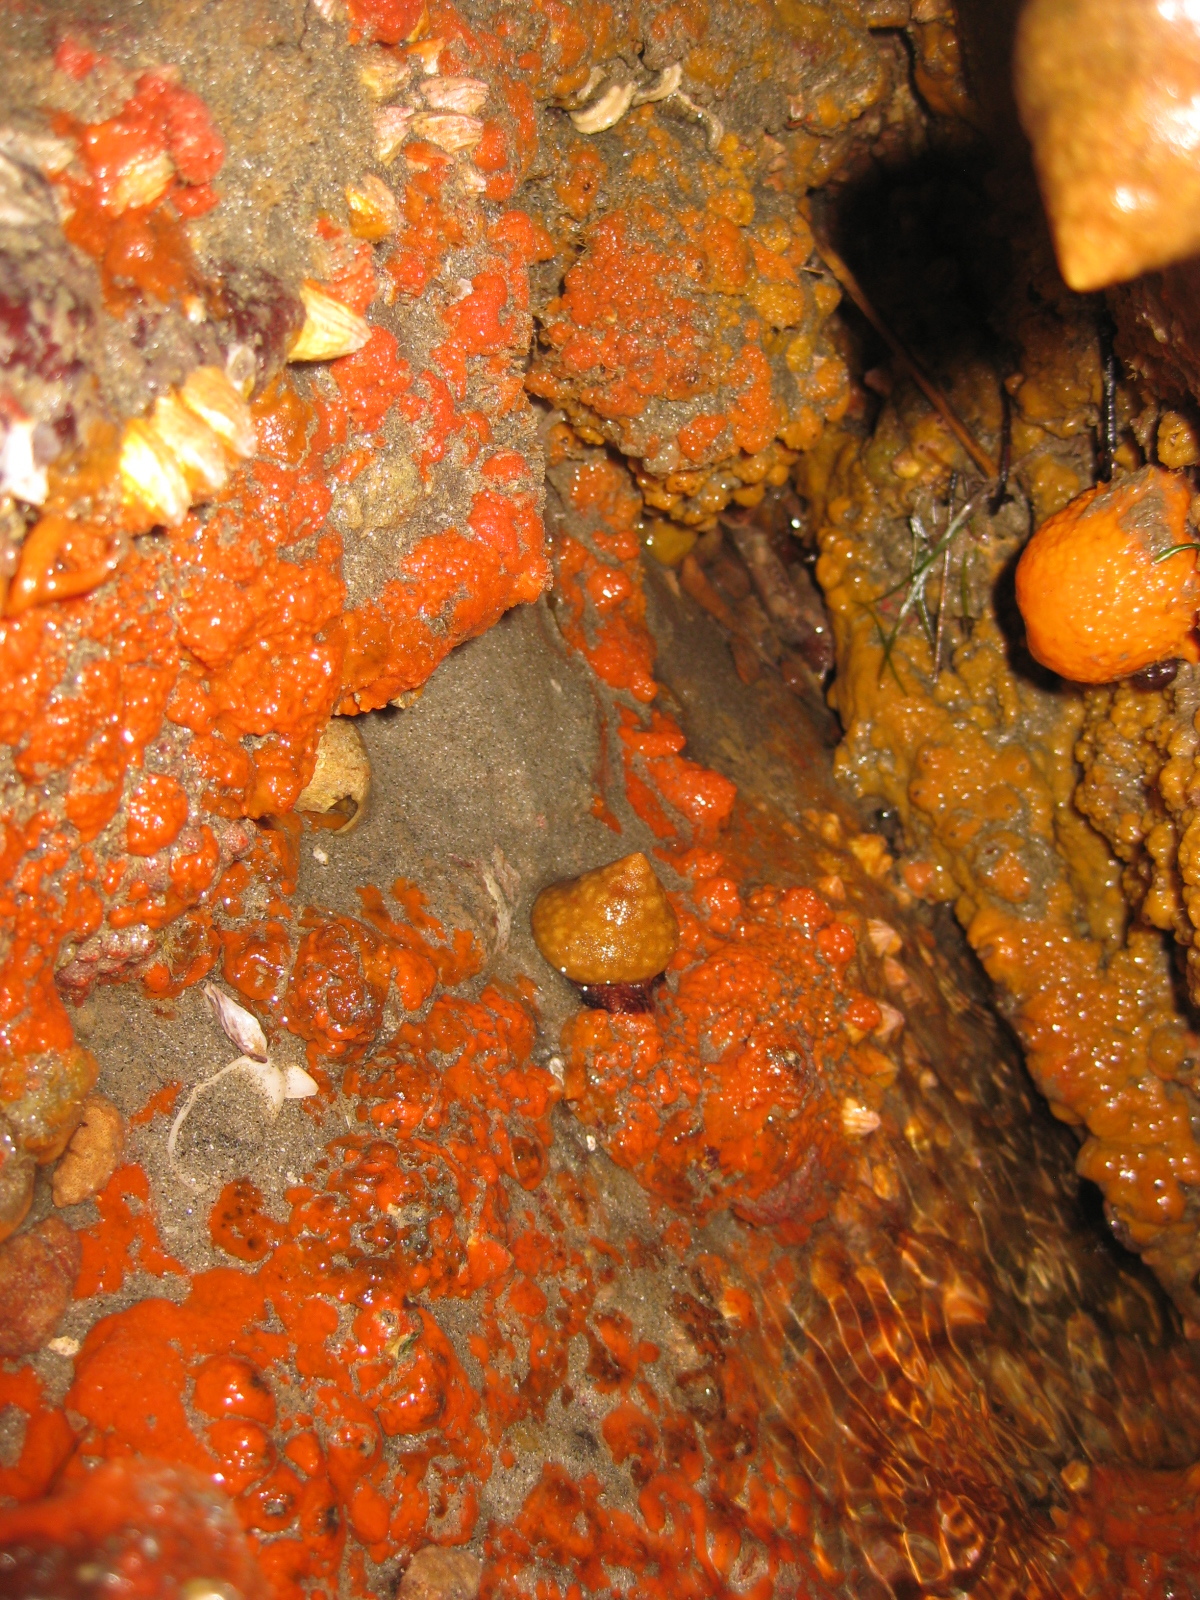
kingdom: Animalia
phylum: Mollusca
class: Gastropoda
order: Trochida
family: Calliostomatidae
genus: Maurea
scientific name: Maurea punctulata
